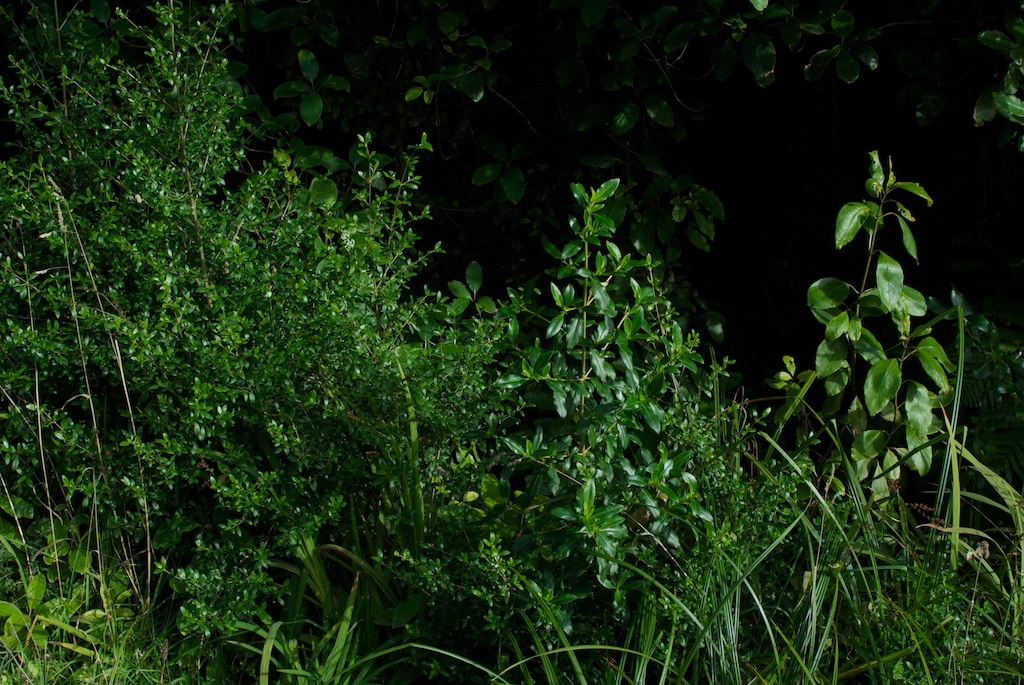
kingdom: Plantae
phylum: Tracheophyta
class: Magnoliopsida
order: Gentianales
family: Rubiaceae
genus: Coprosma
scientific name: Coprosma autumnalis
